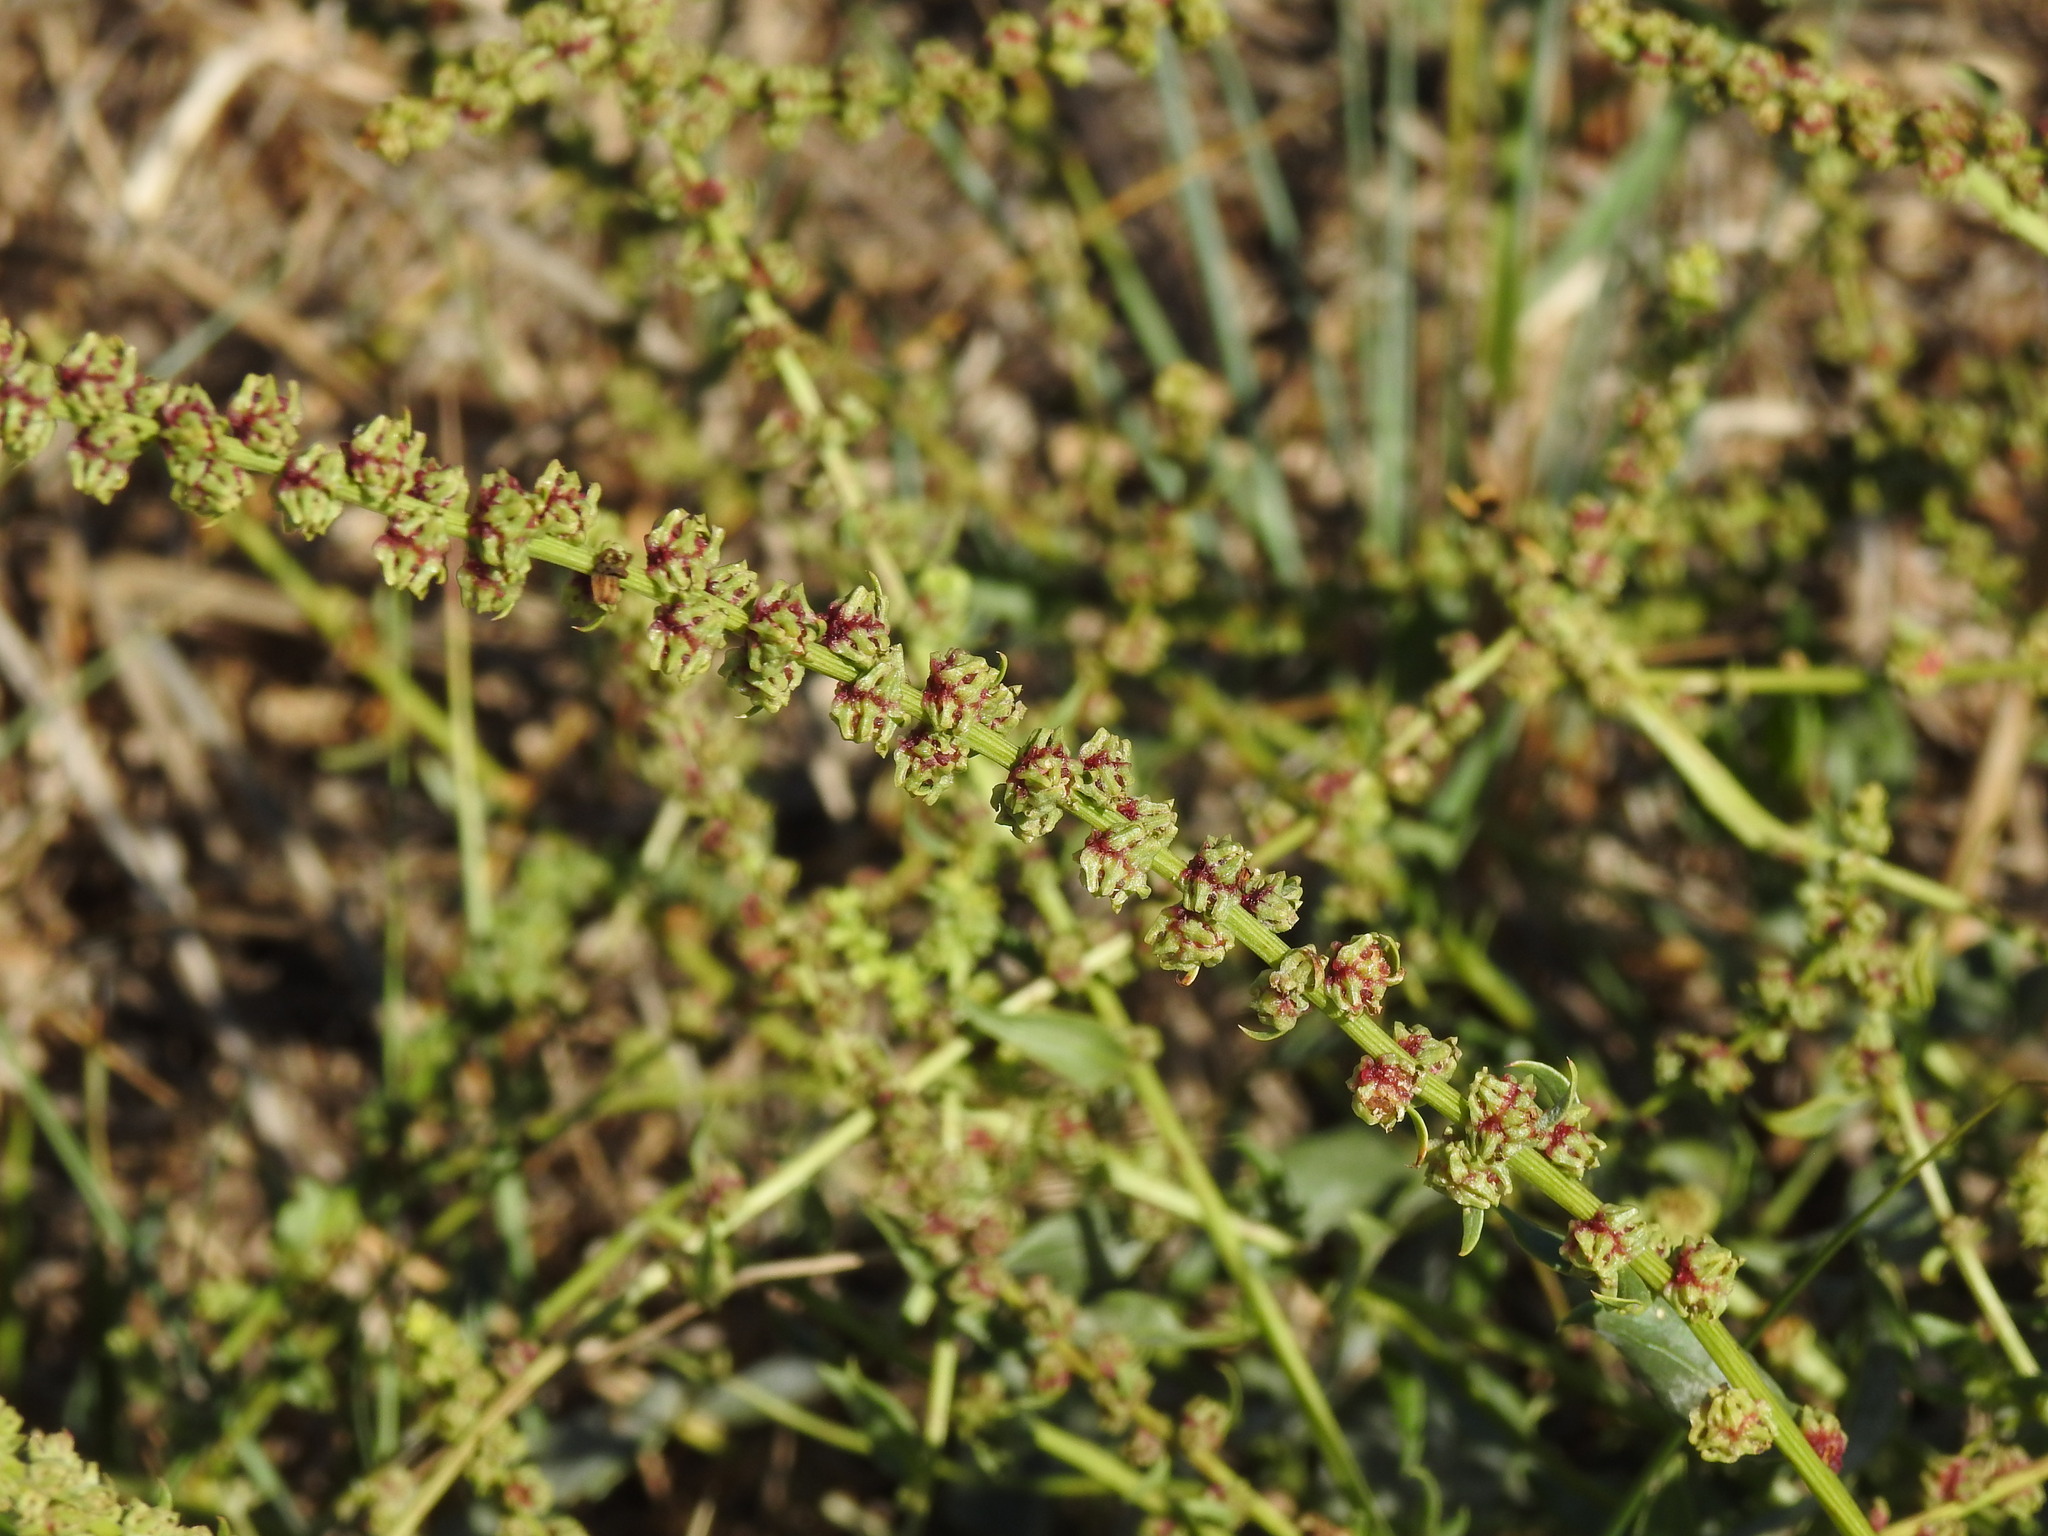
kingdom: Plantae
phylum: Tracheophyta
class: Magnoliopsida
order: Caryophyllales
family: Amaranthaceae
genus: Beta
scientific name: Beta vulgaris
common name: Beet
